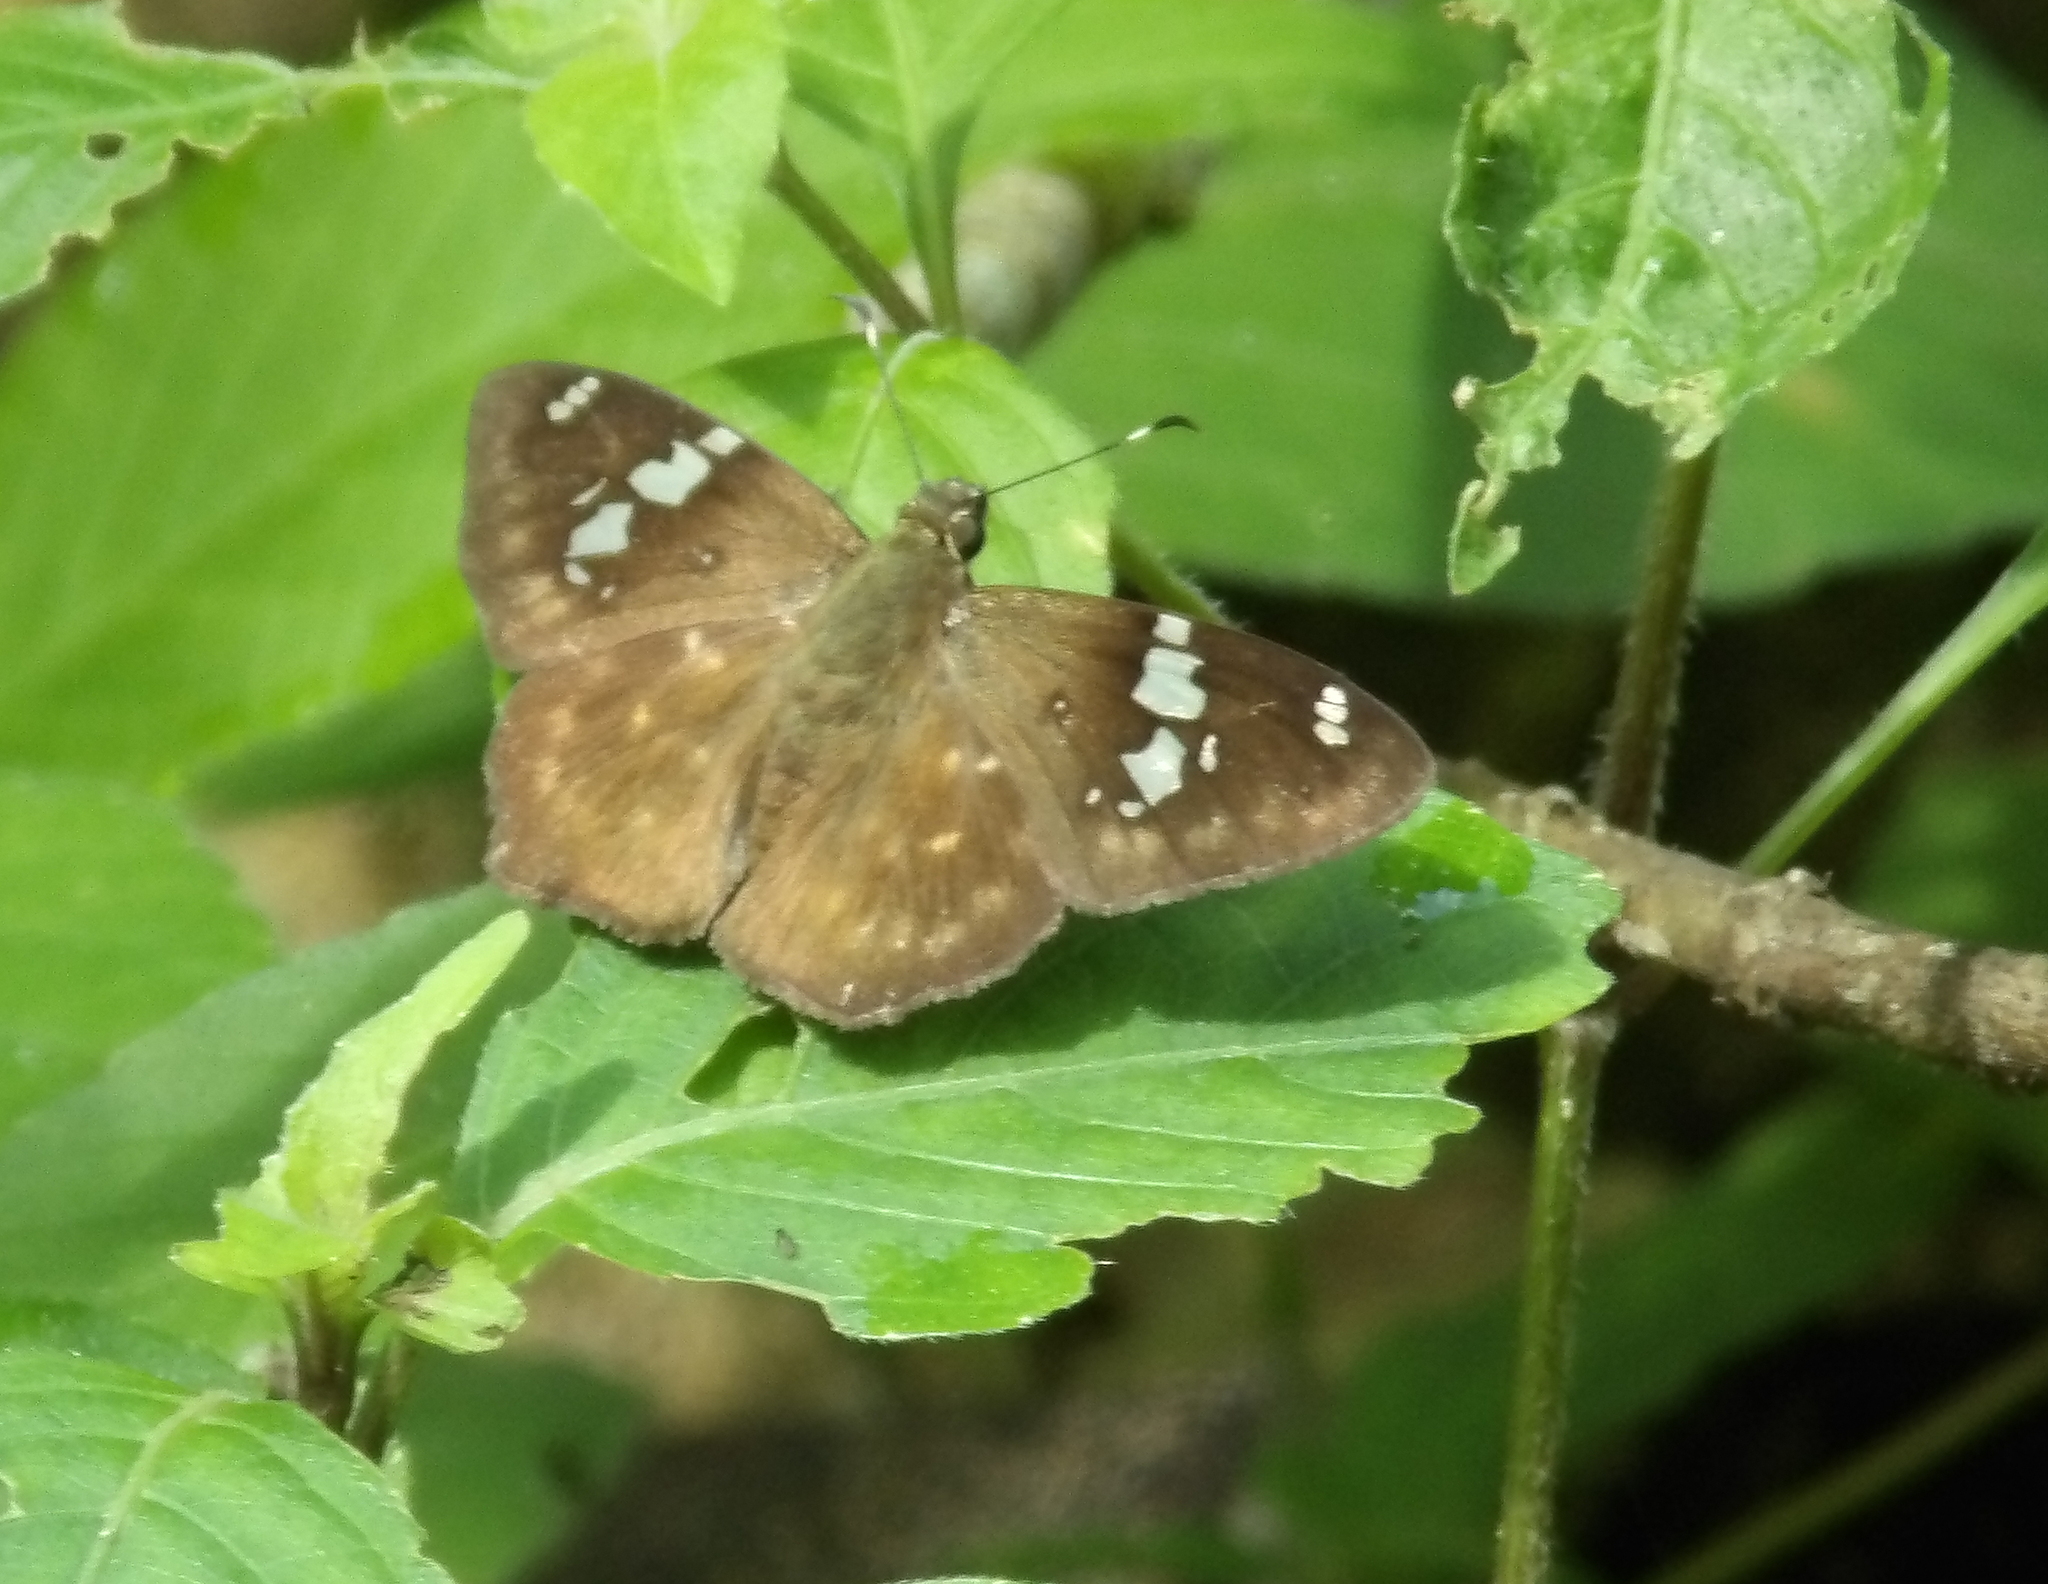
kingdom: Animalia
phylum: Arthropoda
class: Insecta
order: Lepidoptera
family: Hesperiidae
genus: Celaenorrhinus
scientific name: Celaenorrhinus similis
